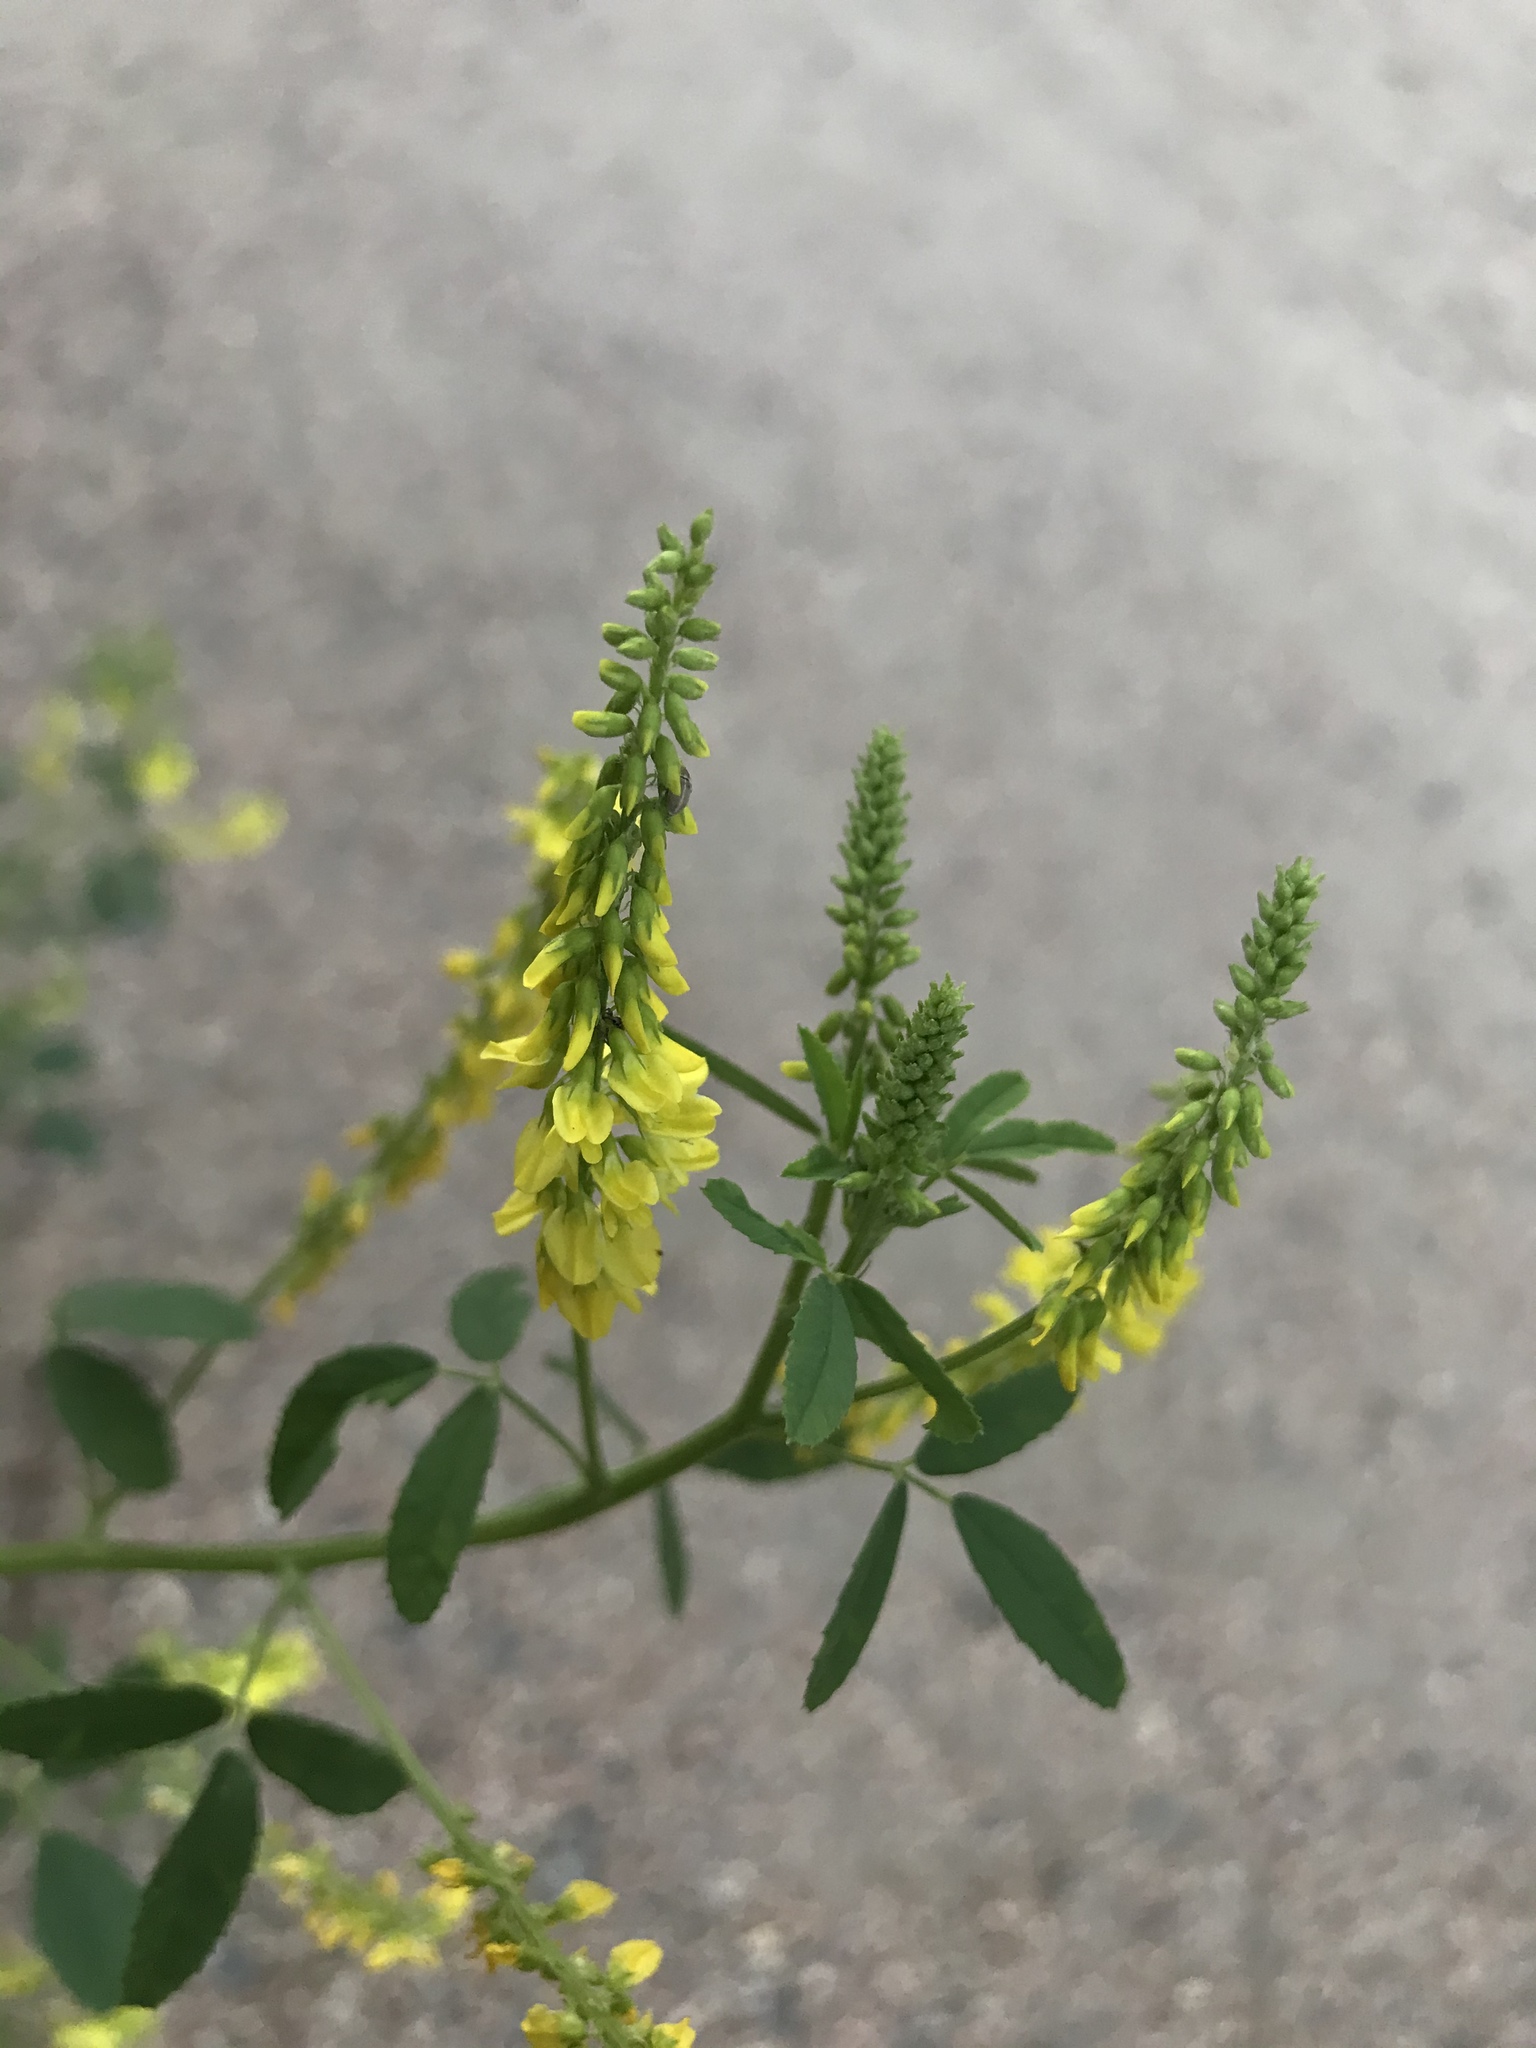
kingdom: Plantae
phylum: Tracheophyta
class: Magnoliopsida
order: Fabales
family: Fabaceae
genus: Melilotus
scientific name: Melilotus officinalis
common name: Sweetclover
